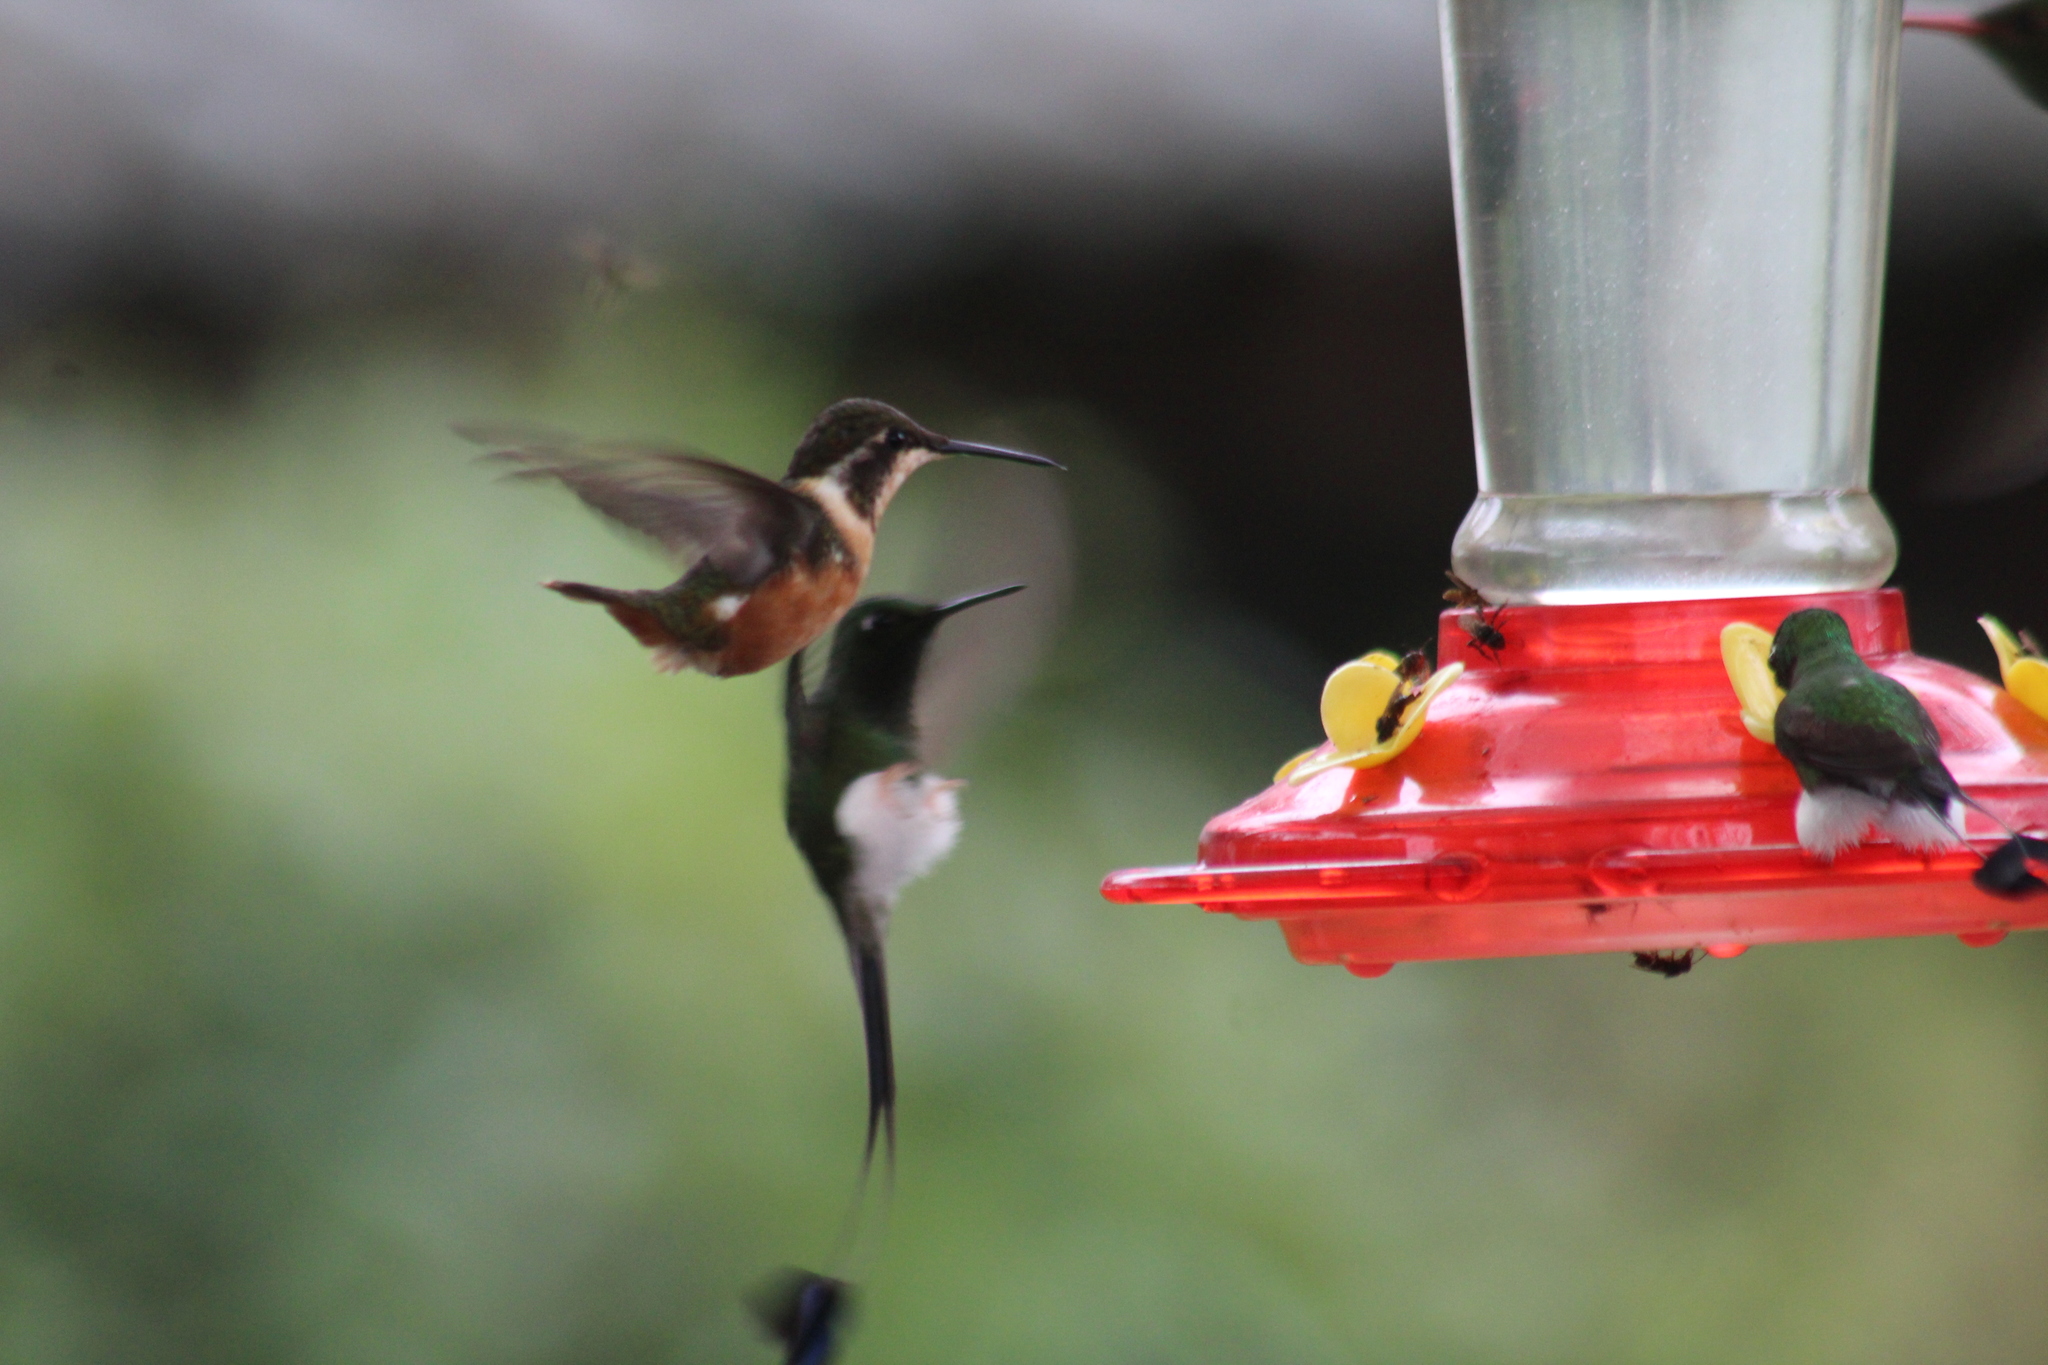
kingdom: Animalia
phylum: Chordata
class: Aves
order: Apodiformes
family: Trochilidae
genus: Calliphlox
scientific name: Calliphlox mitchellii
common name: Purple-throated woodstar
